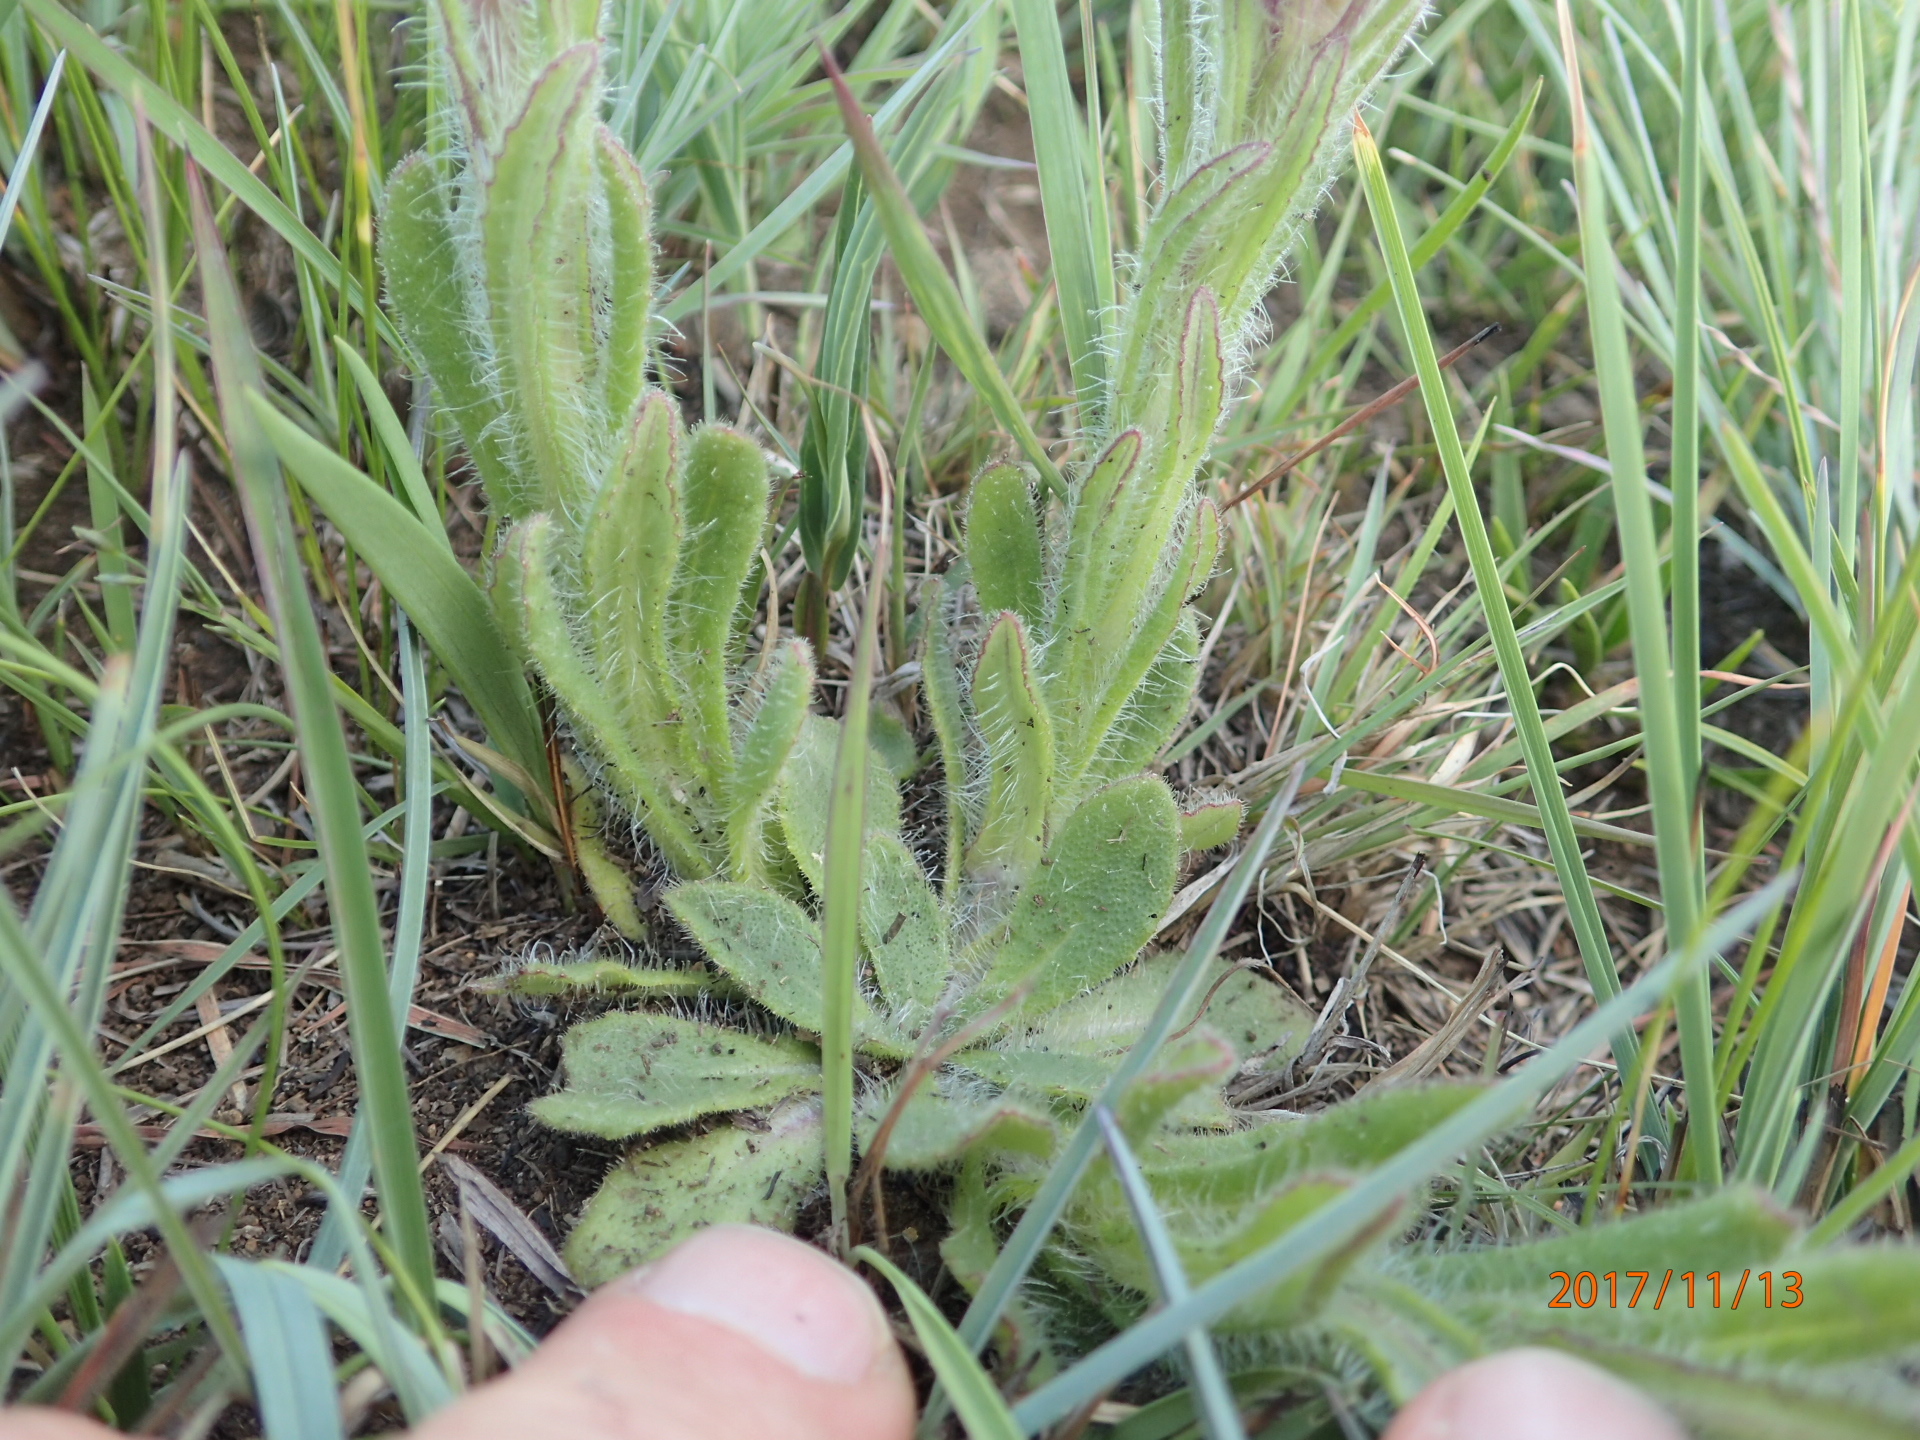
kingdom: Plantae
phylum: Tracheophyta
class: Magnoliopsida
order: Asterales
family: Asteraceae
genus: Senecio
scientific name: Senecio barbatus
